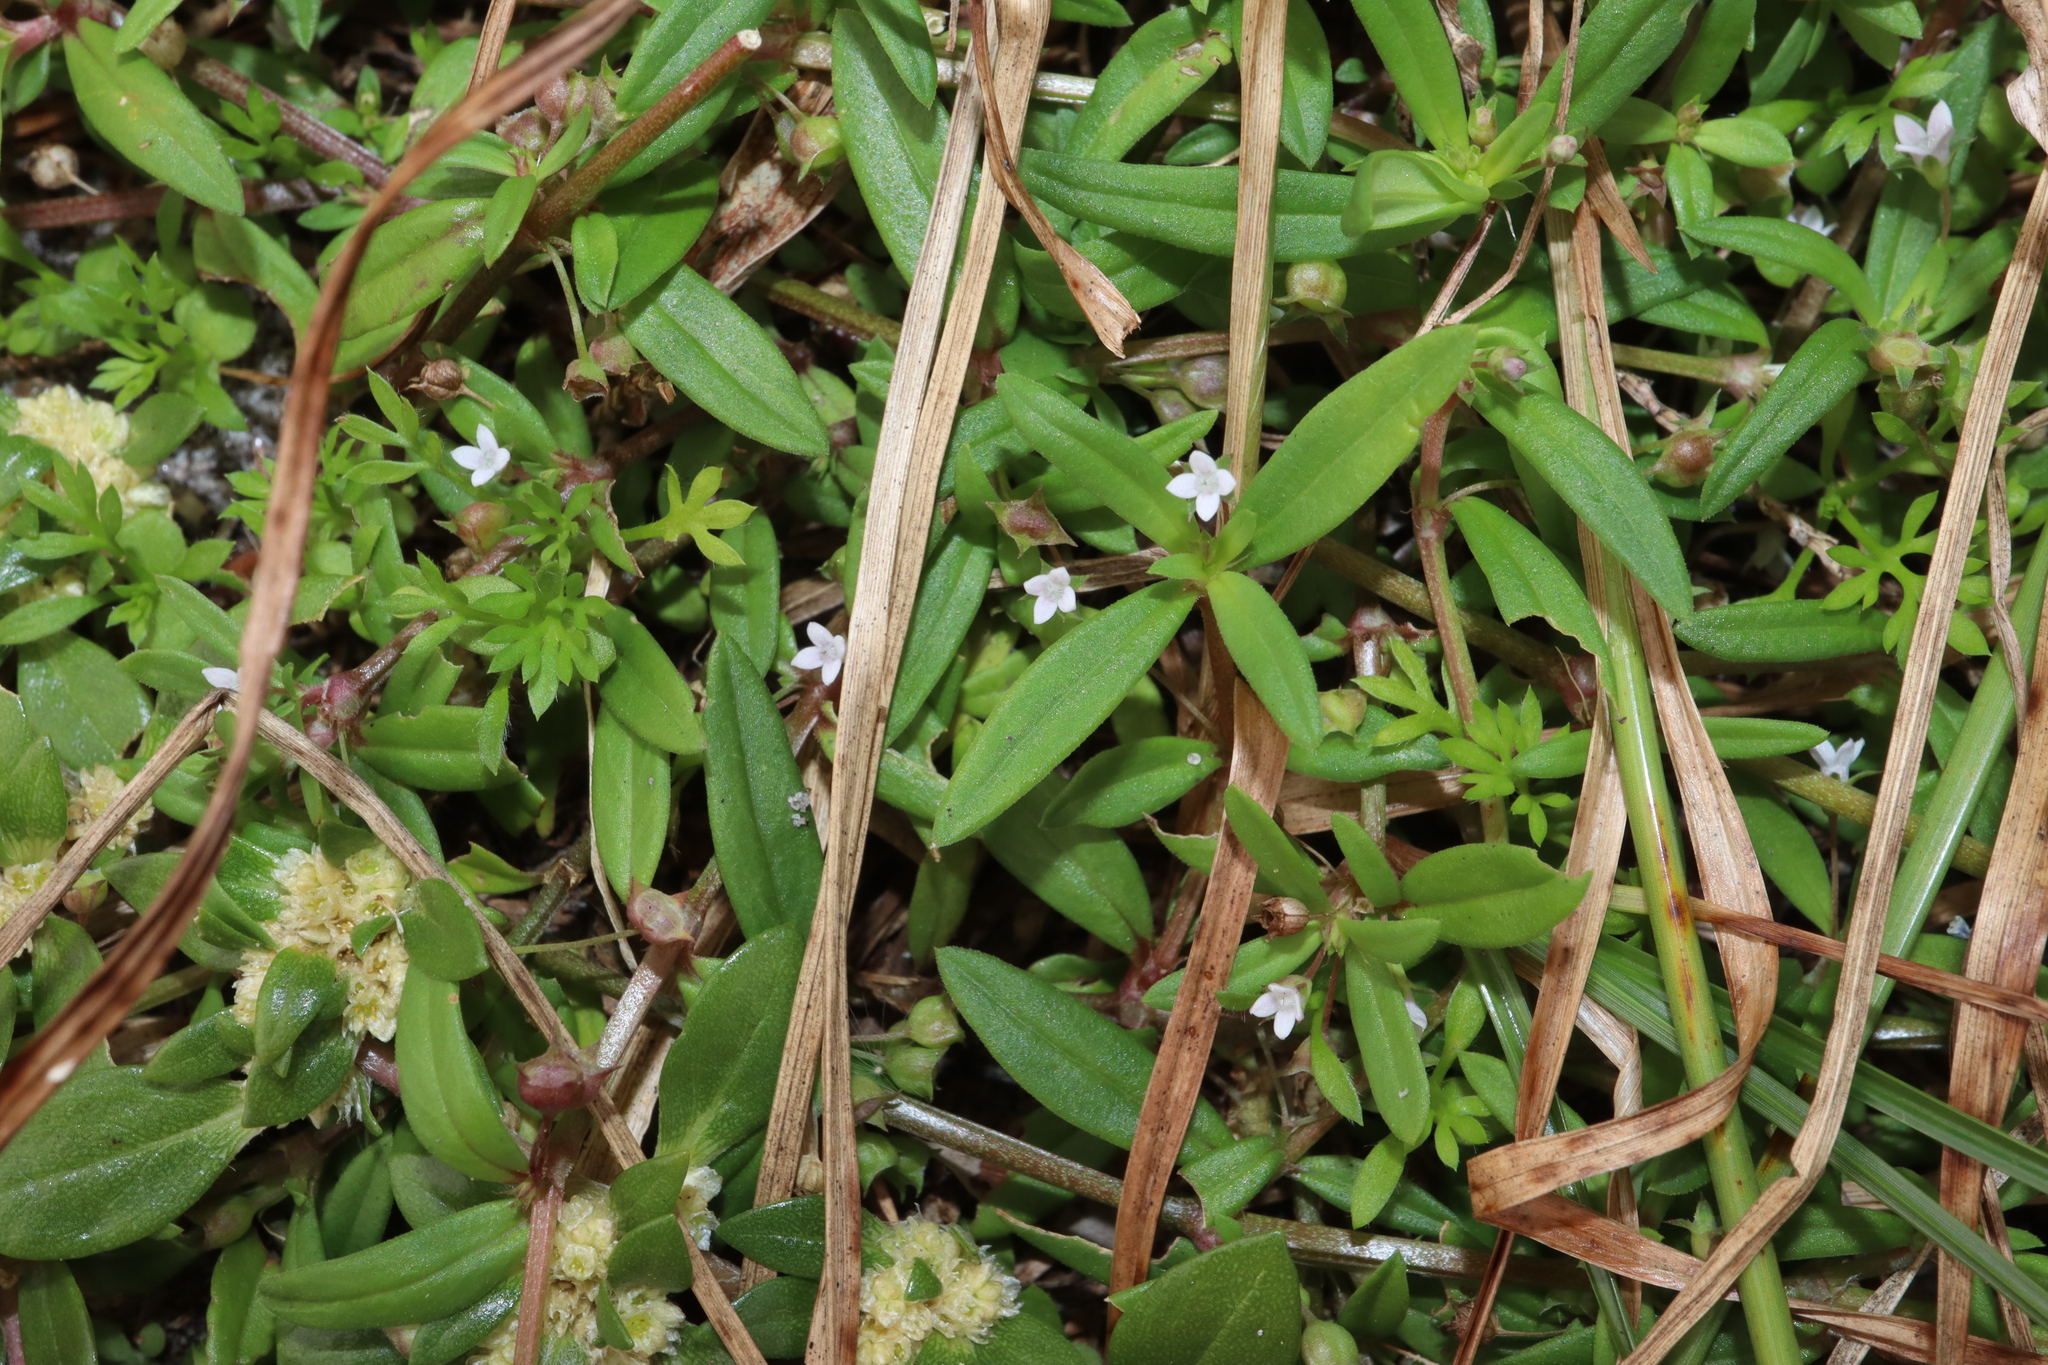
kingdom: Plantae
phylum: Tracheophyta
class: Magnoliopsida
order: Gentianales
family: Rubiaceae
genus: Oldenlandia
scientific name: Oldenlandia corymbosa
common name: Flat-top mille graines
